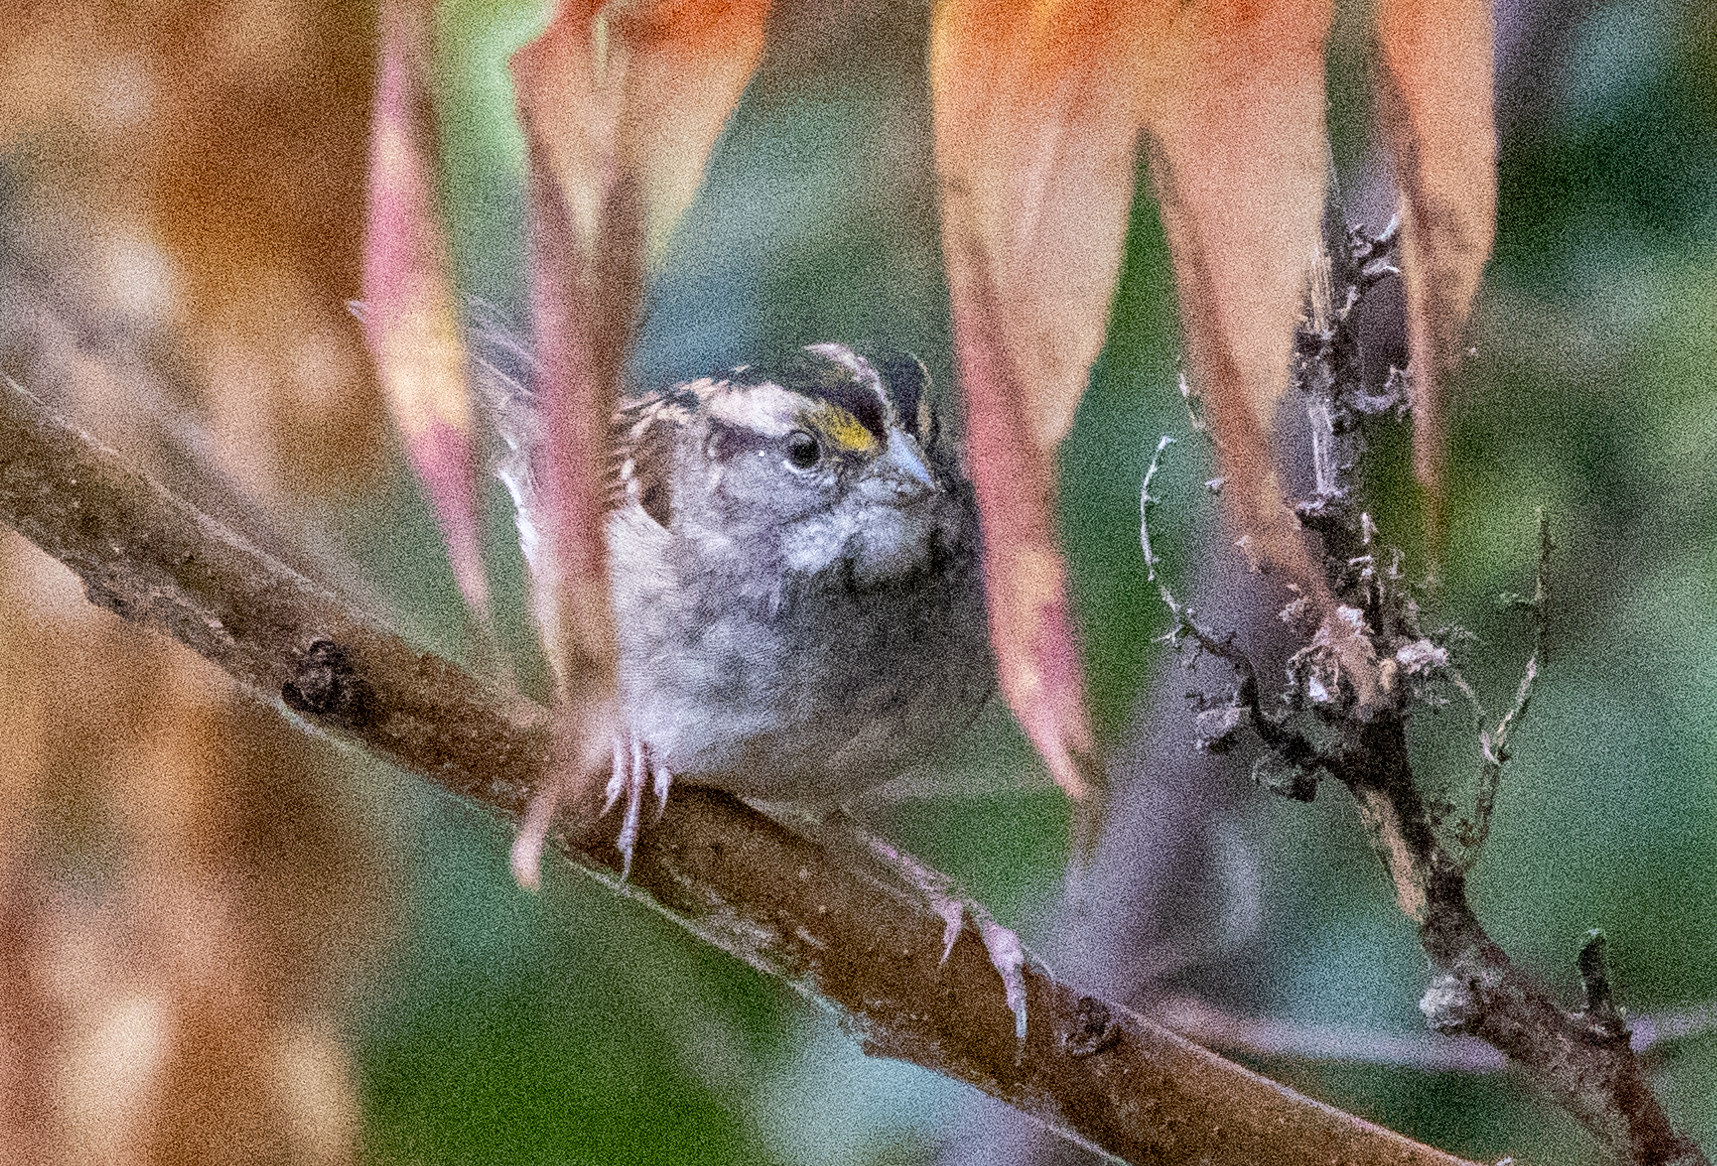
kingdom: Animalia
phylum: Chordata
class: Aves
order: Passeriformes
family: Passerellidae
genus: Zonotrichia
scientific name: Zonotrichia albicollis
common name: White-throated sparrow
